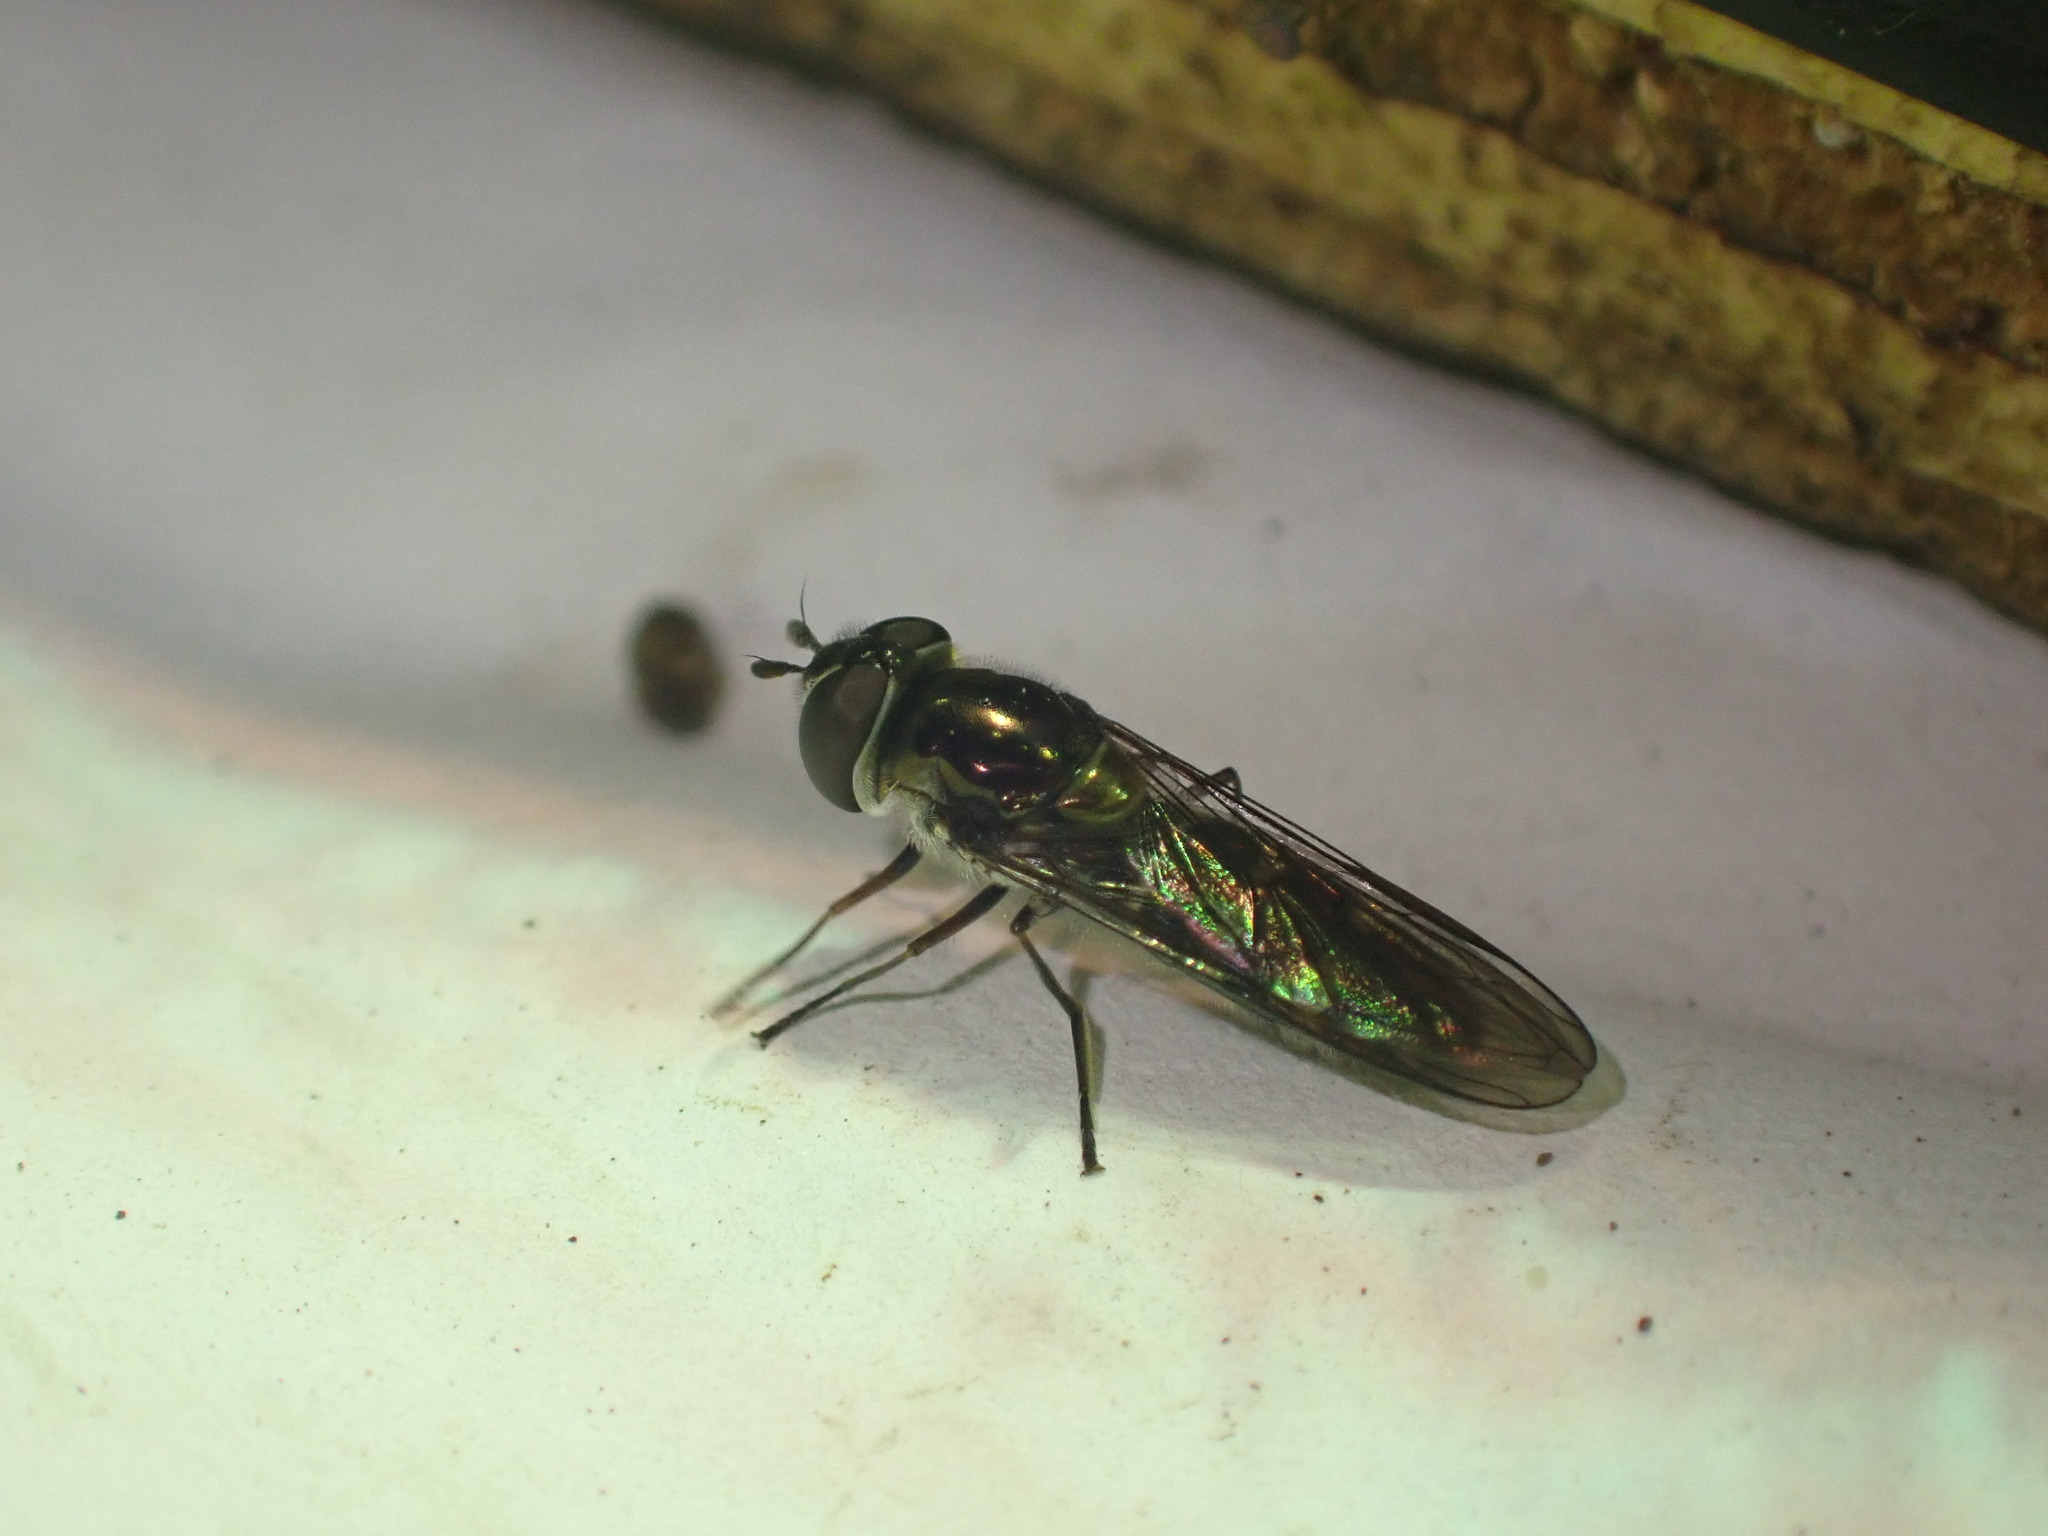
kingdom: Animalia
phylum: Arthropoda
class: Insecta
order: Diptera
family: Syrphidae
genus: Melangyna
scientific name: Melangyna novaezelandiae
